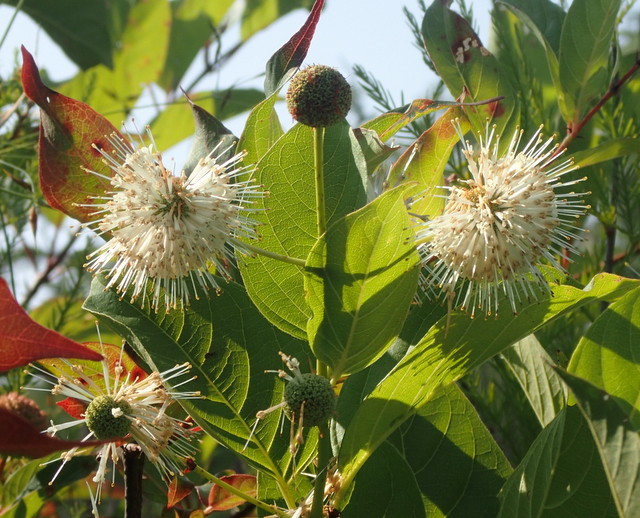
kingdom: Plantae
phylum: Tracheophyta
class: Magnoliopsida
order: Gentianales
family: Rubiaceae
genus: Cephalanthus
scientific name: Cephalanthus occidentalis
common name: Button-willow
